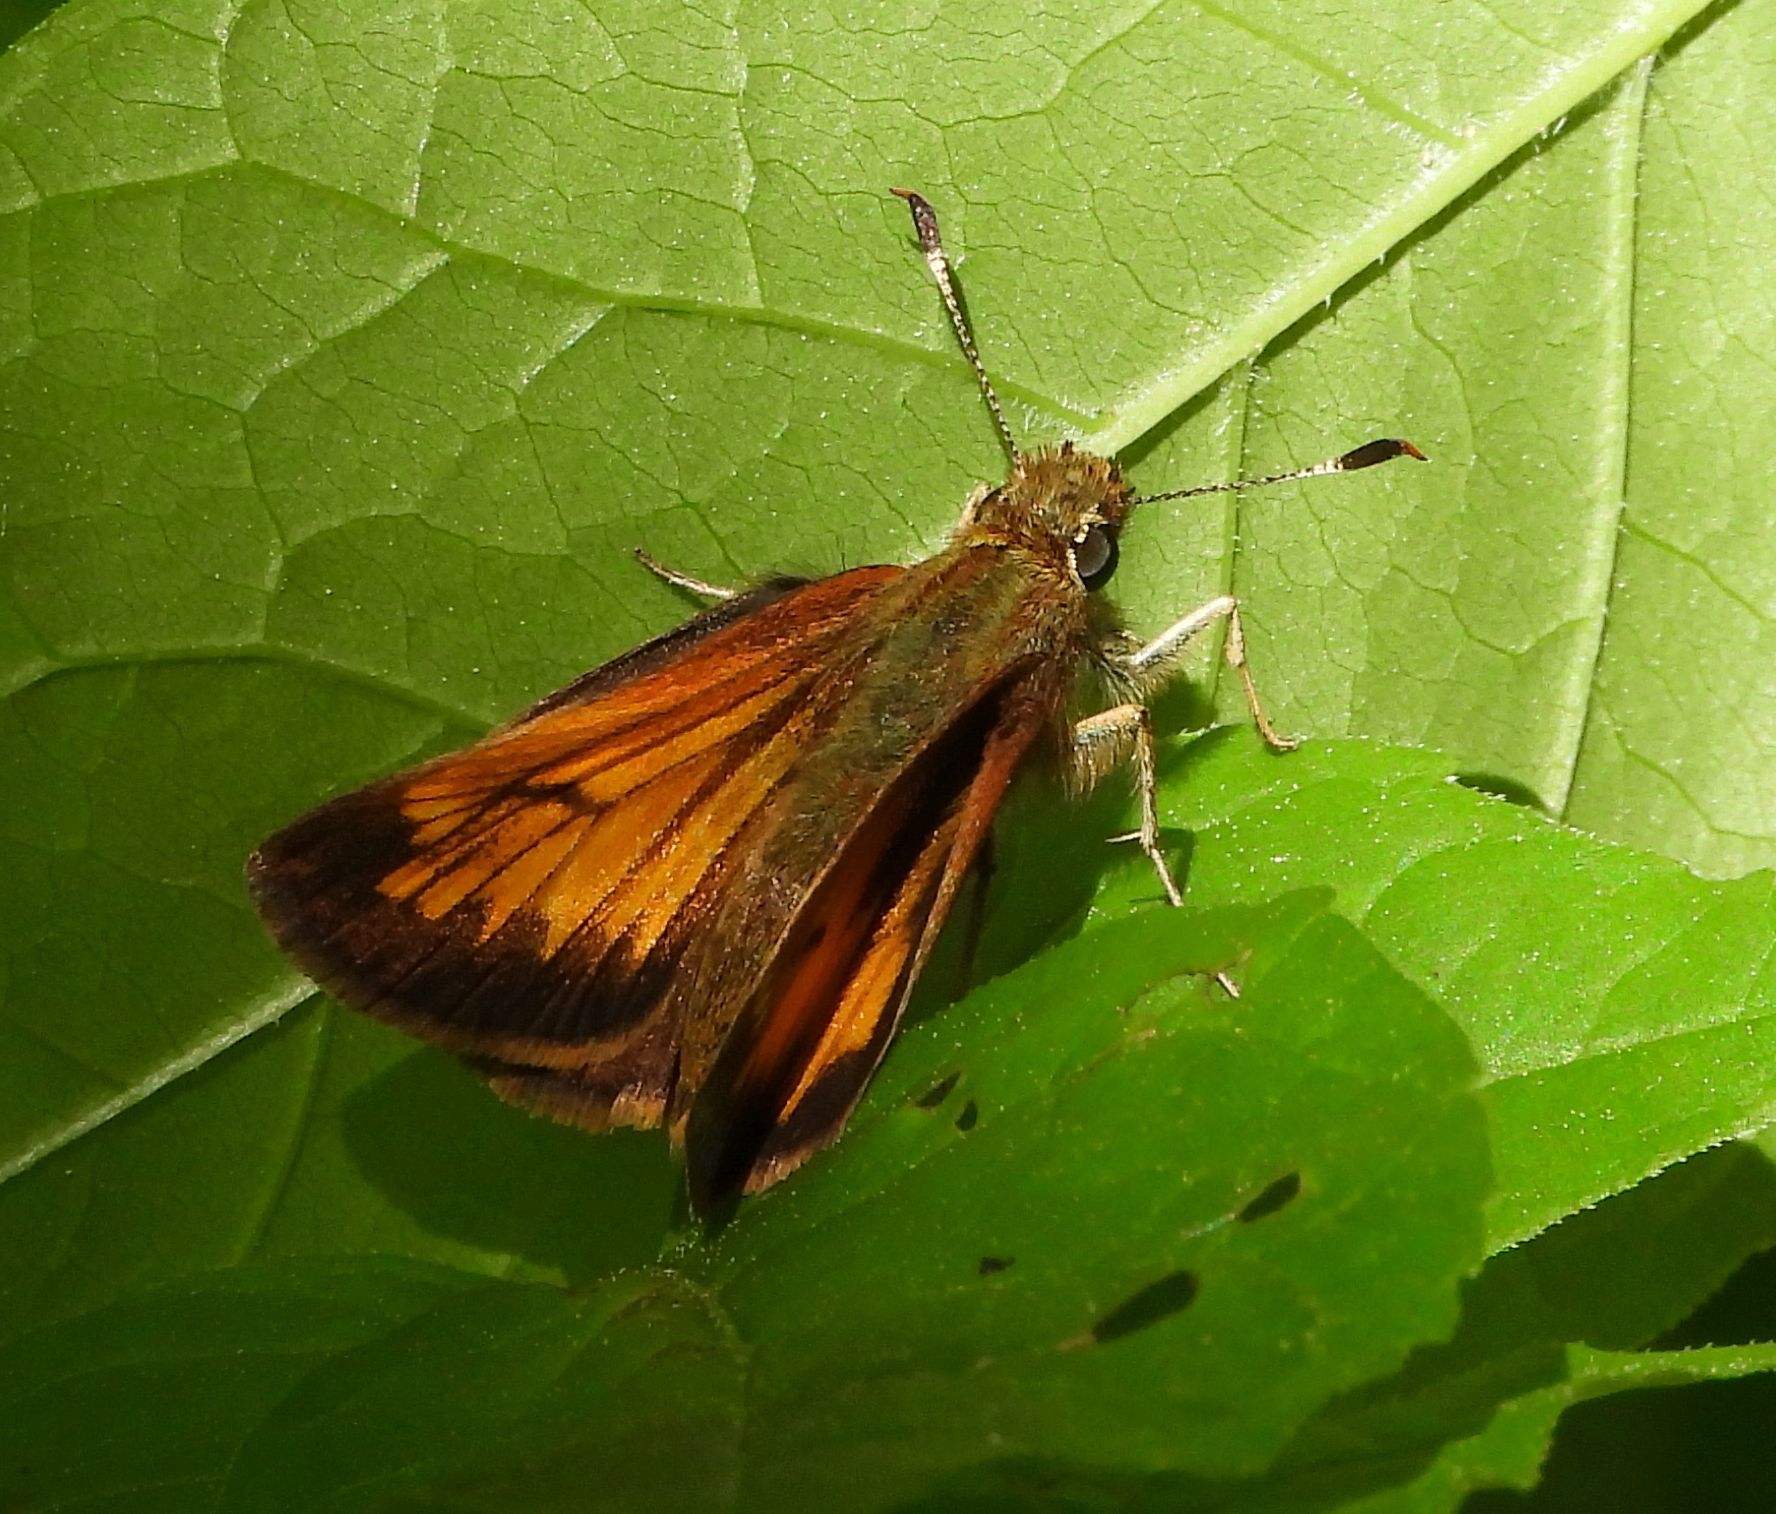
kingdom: Animalia
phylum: Arthropoda
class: Insecta
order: Lepidoptera
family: Hesperiidae
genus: Lon
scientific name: Lon hobomok
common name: Hobomok skipper
